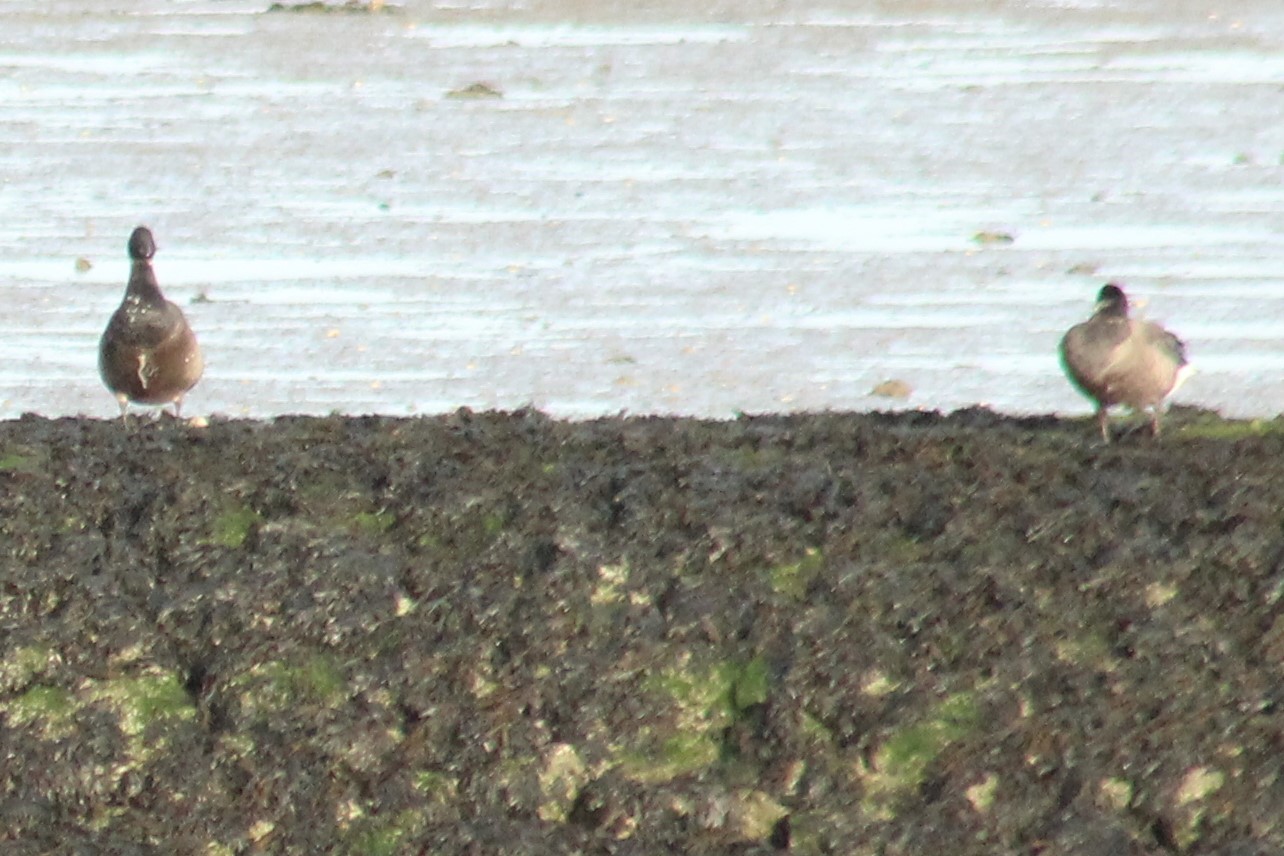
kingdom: Animalia
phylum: Chordata
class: Aves
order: Anseriformes
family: Anatidae
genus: Branta
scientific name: Branta bernicla
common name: Brant goose
